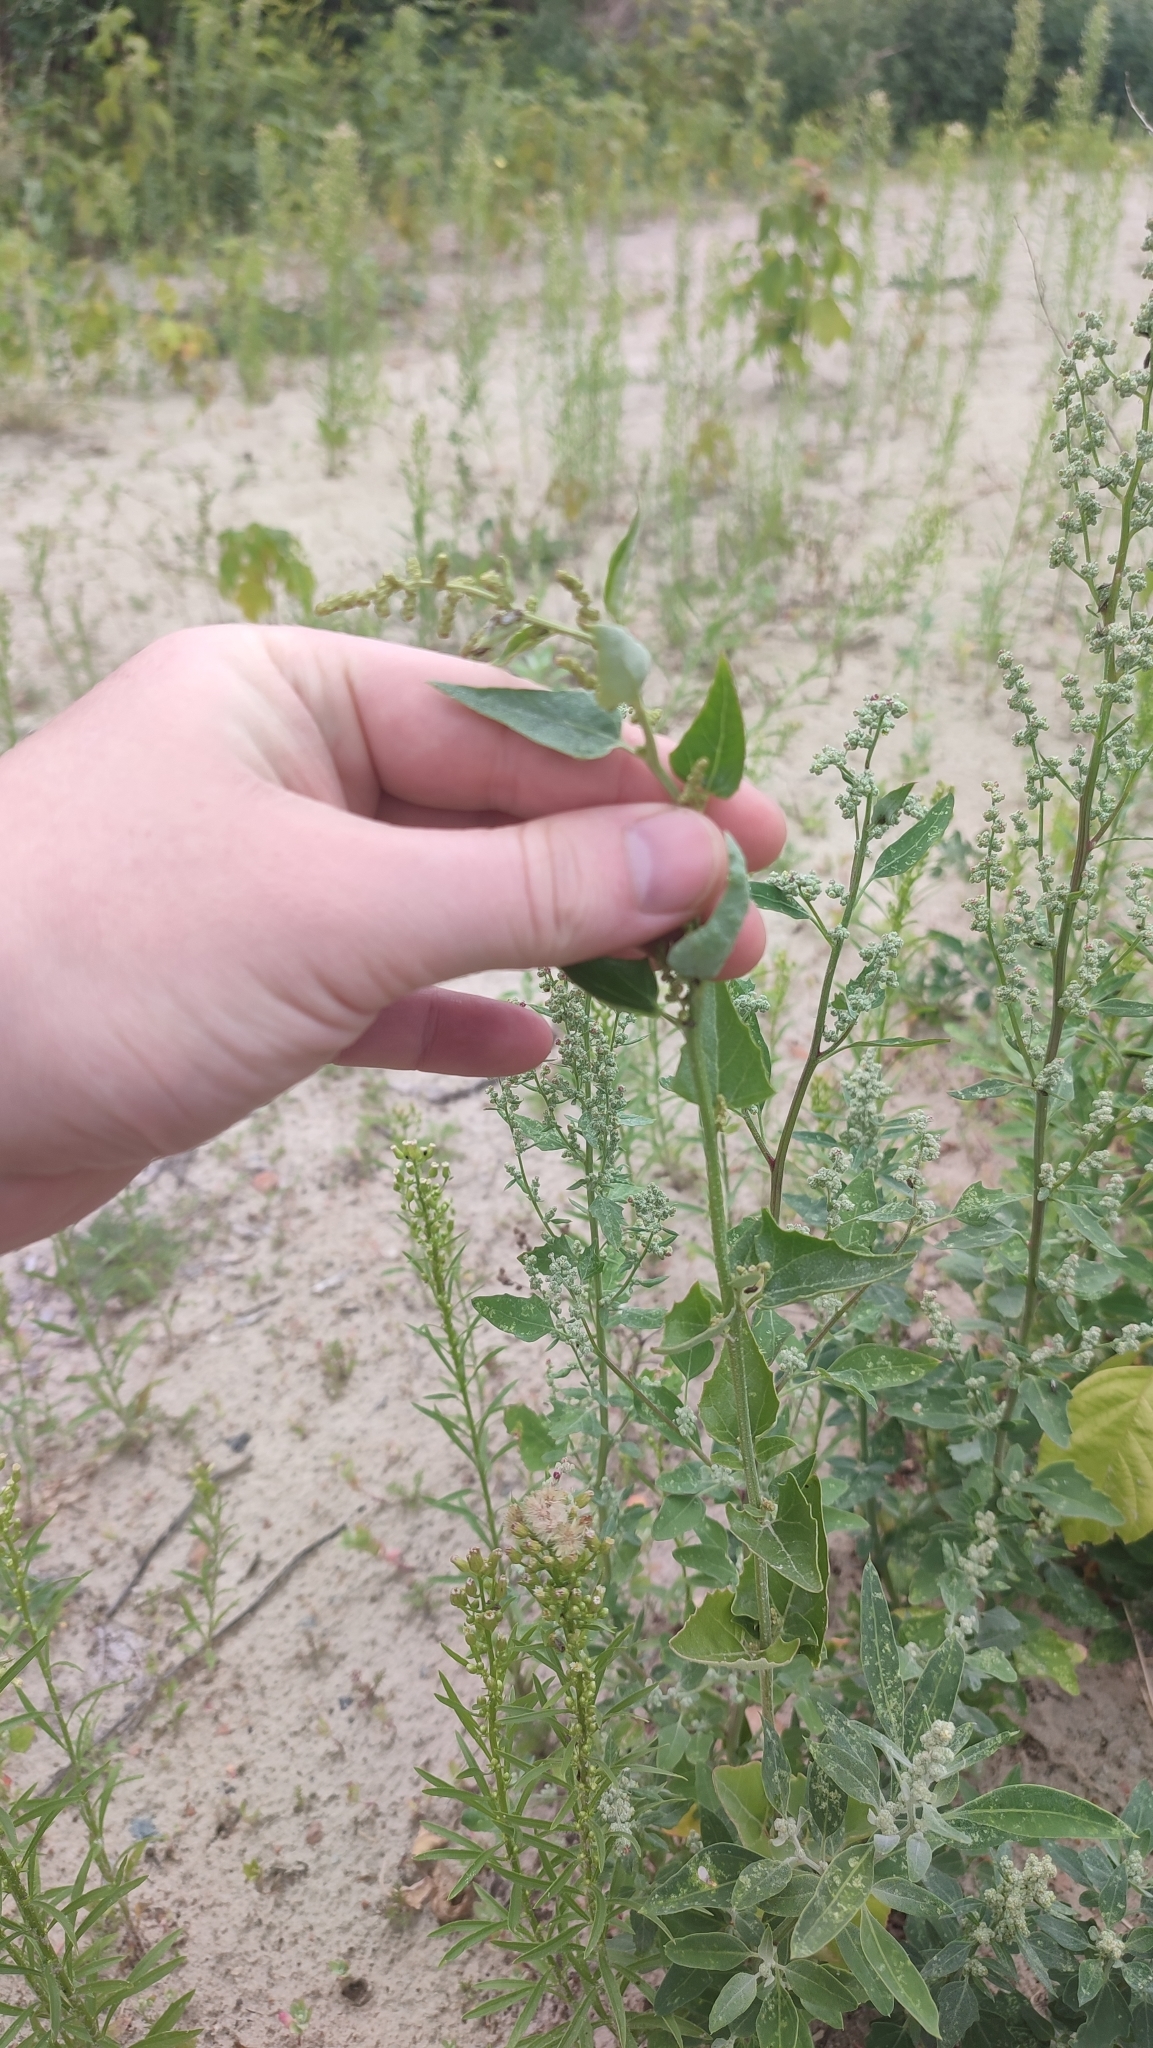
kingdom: Plantae
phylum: Tracheophyta
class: Magnoliopsida
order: Caryophyllales
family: Amaranthaceae
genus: Atriplex
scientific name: Atriplex sagittata
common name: Purple orache
